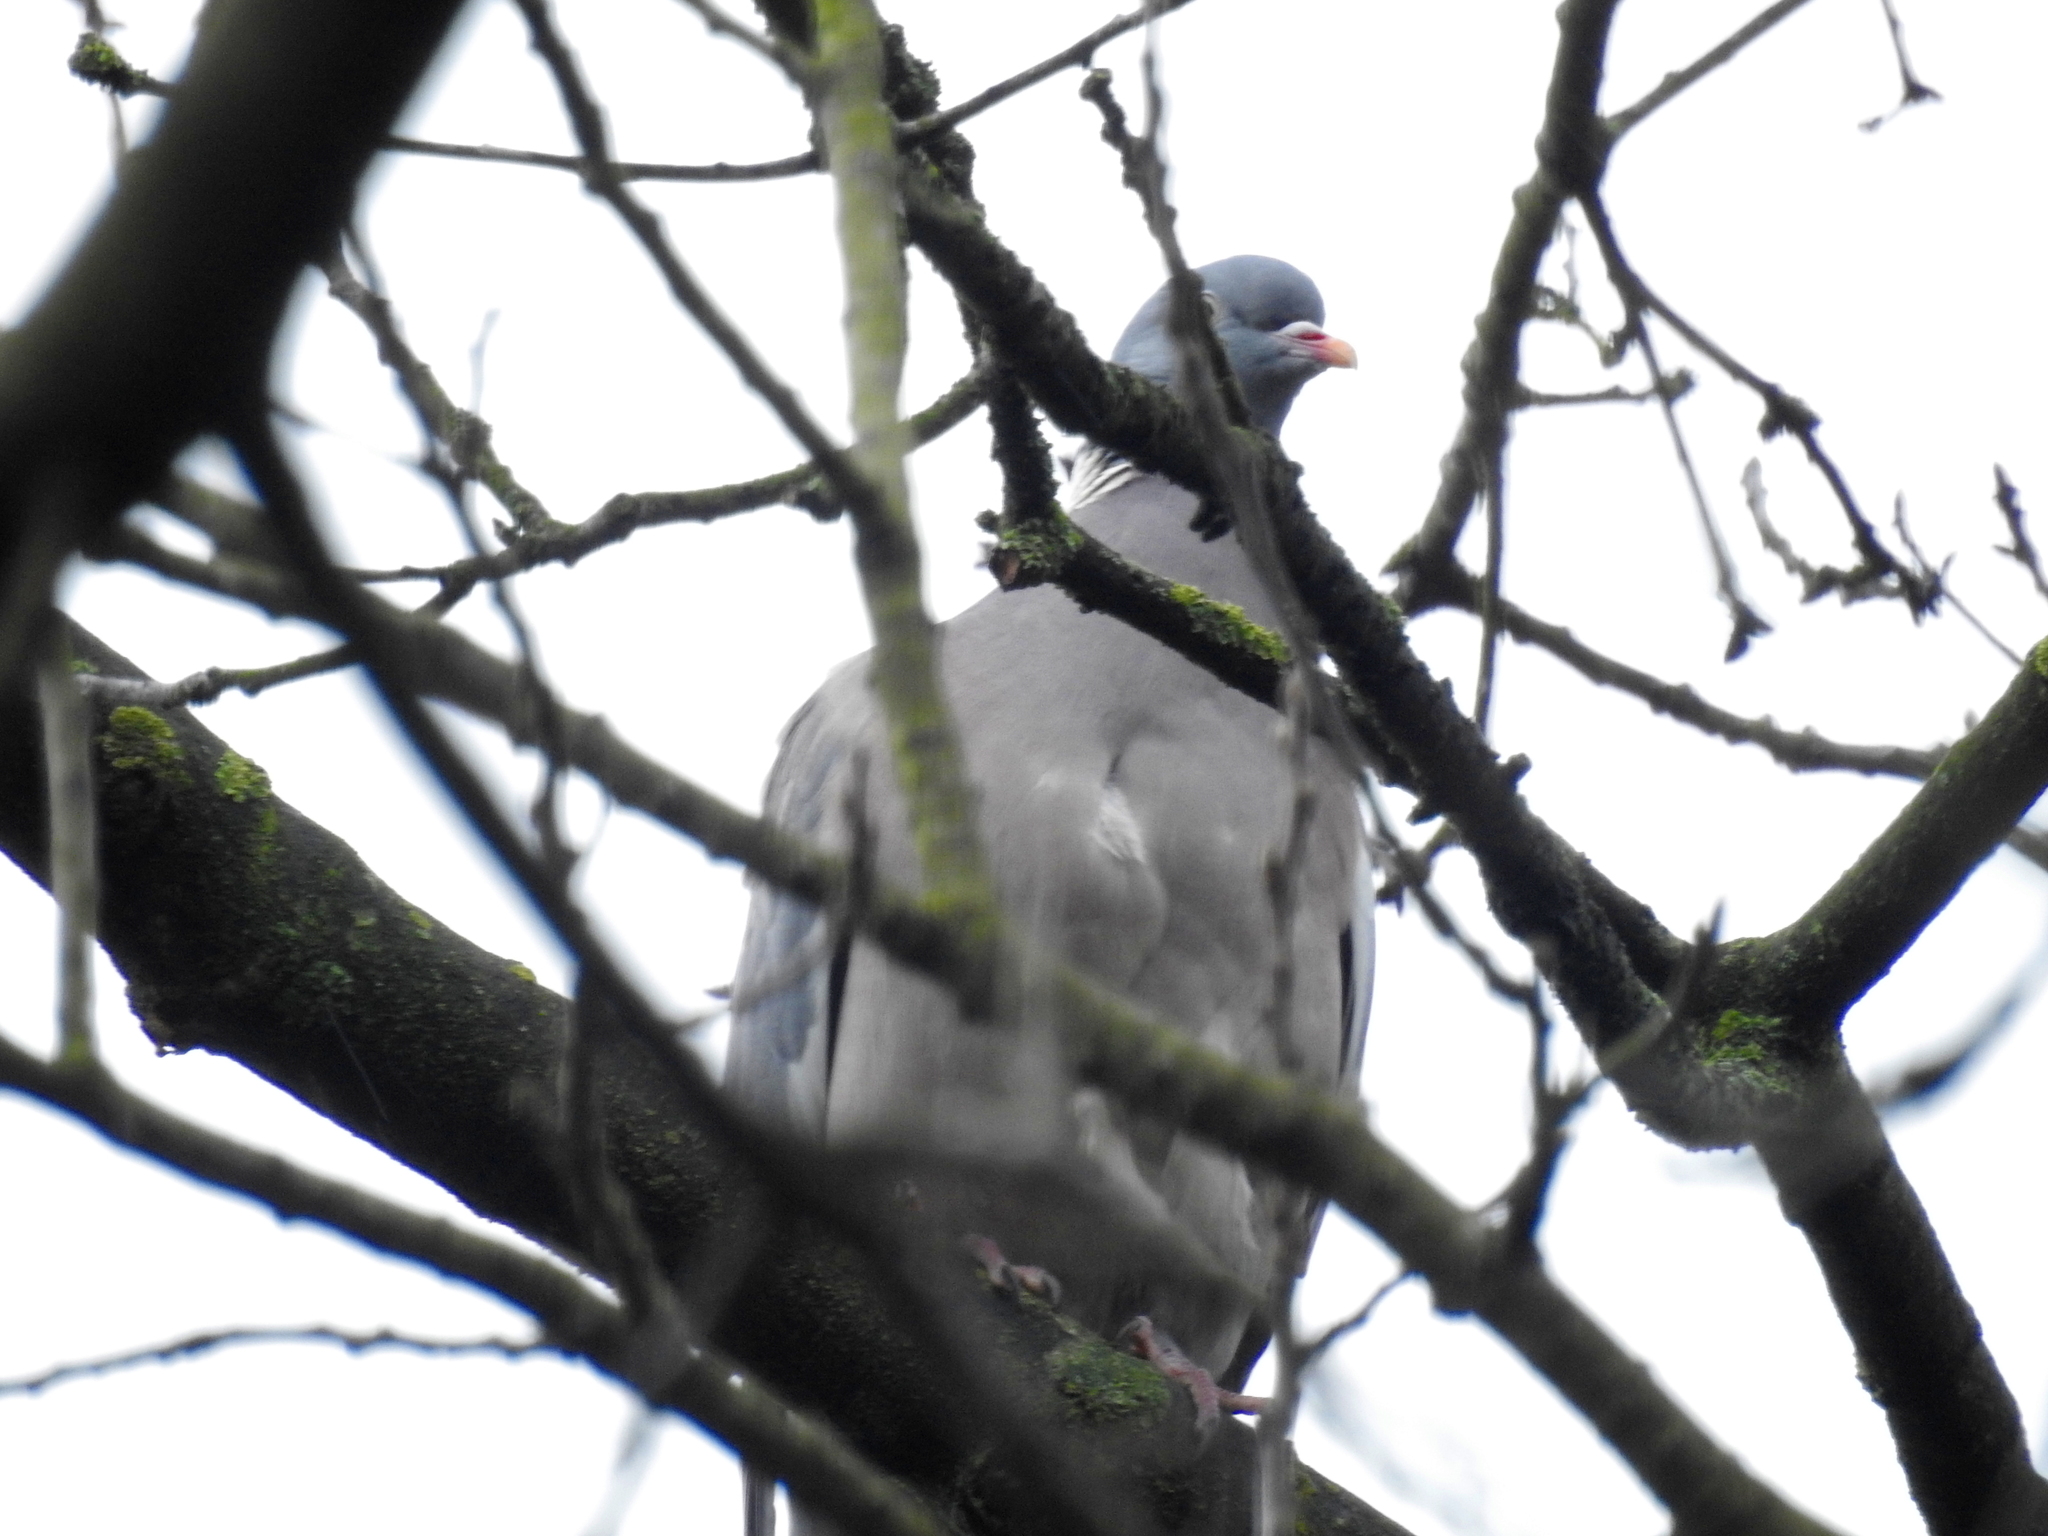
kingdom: Animalia
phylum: Chordata
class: Aves
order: Columbiformes
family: Columbidae
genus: Columba
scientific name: Columba palumbus
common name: Common wood pigeon
